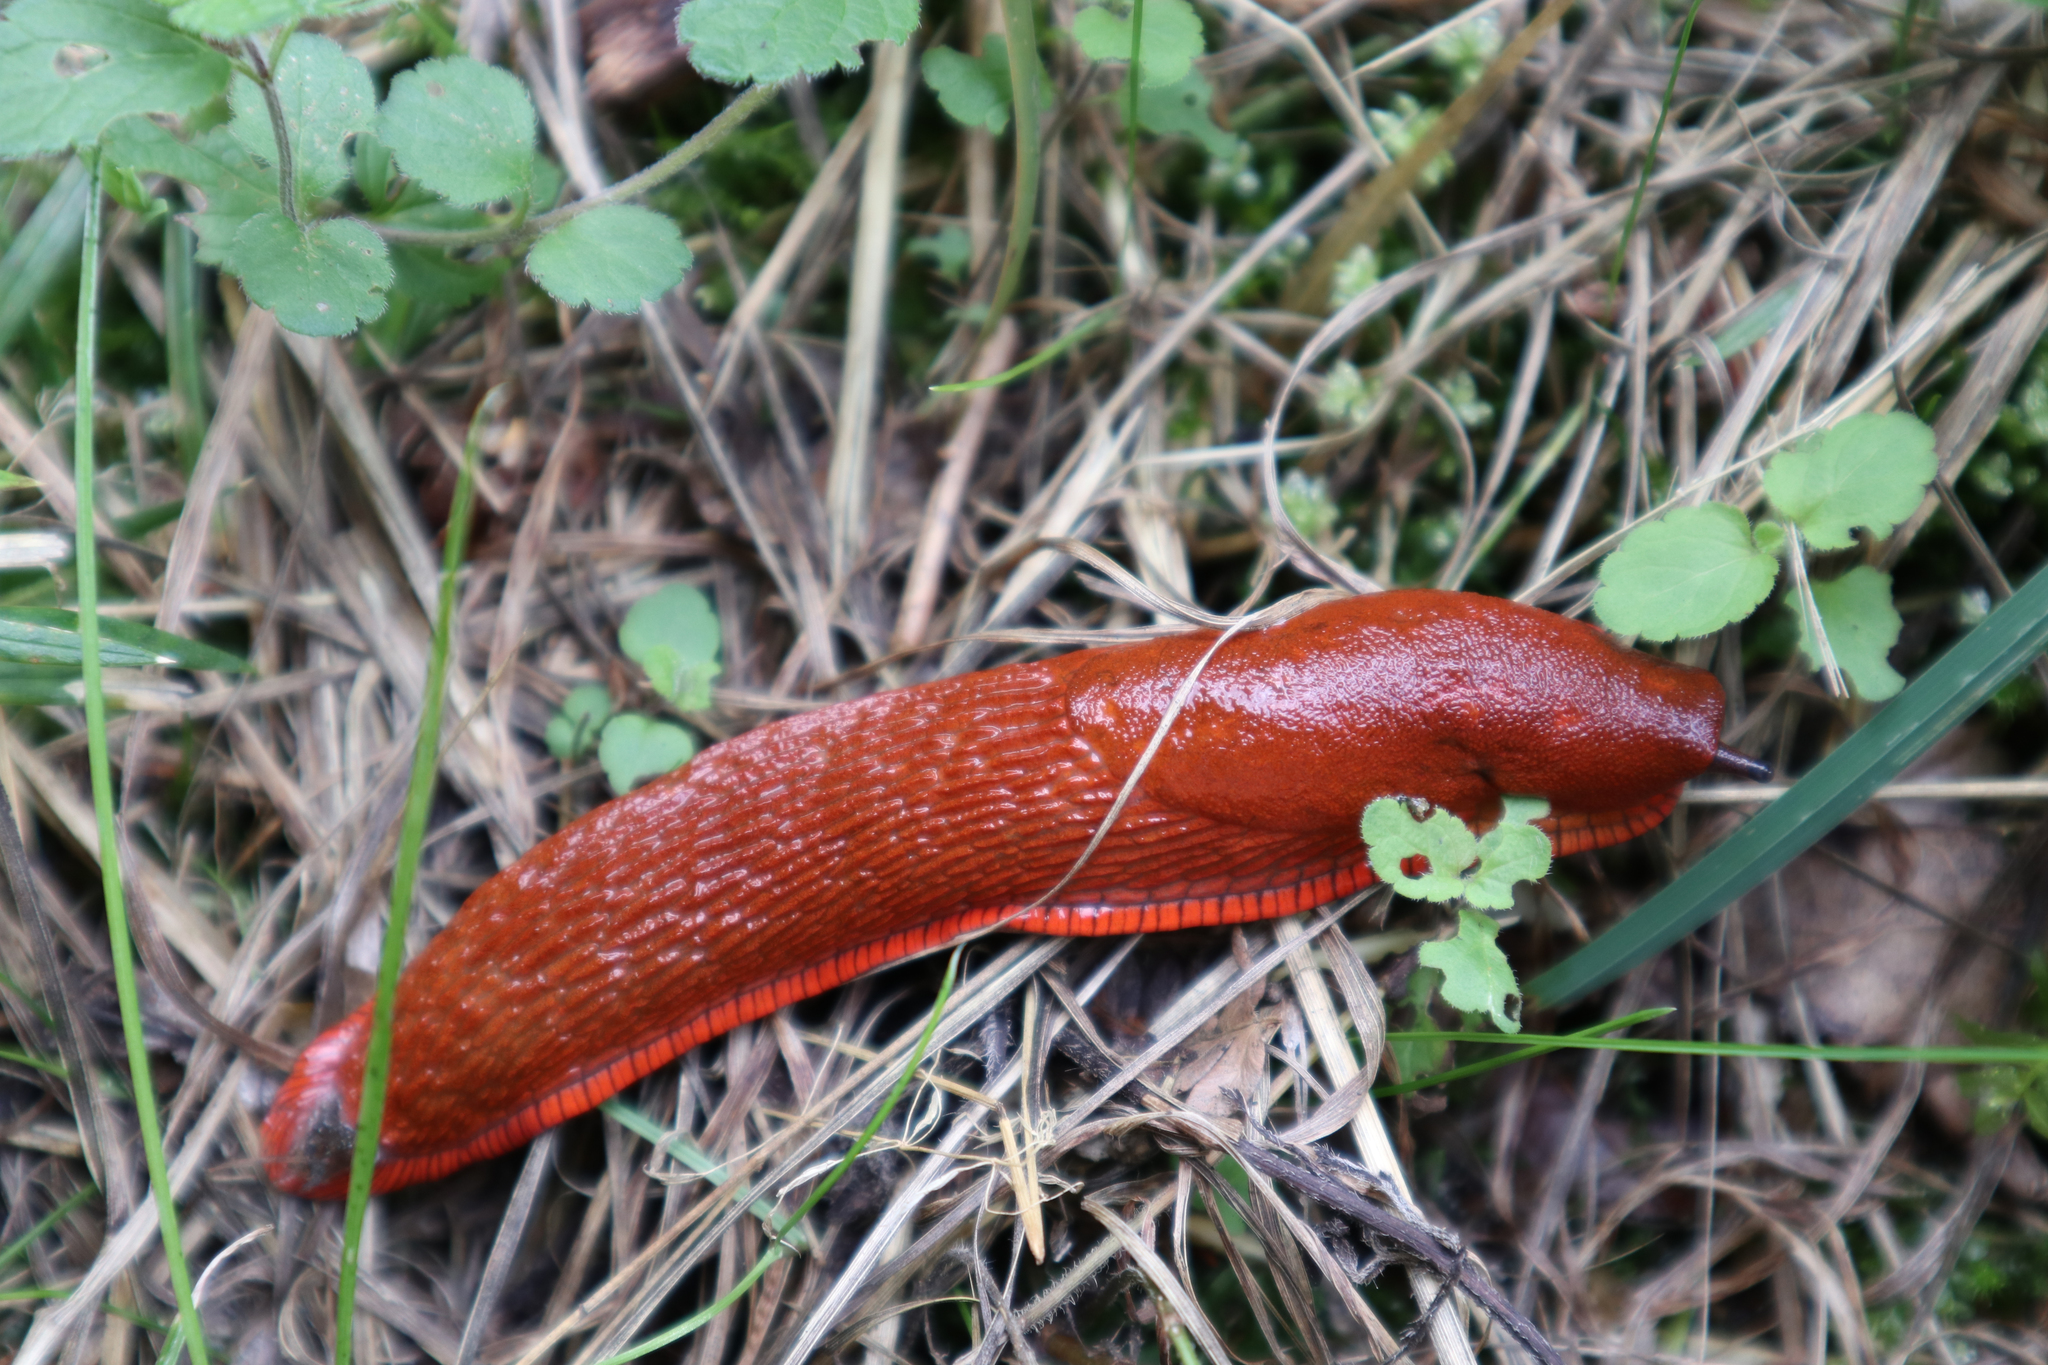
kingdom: Animalia
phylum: Mollusca
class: Gastropoda
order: Stylommatophora
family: Arionidae
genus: Arion
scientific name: Arion rufus
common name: Chocolate arion
